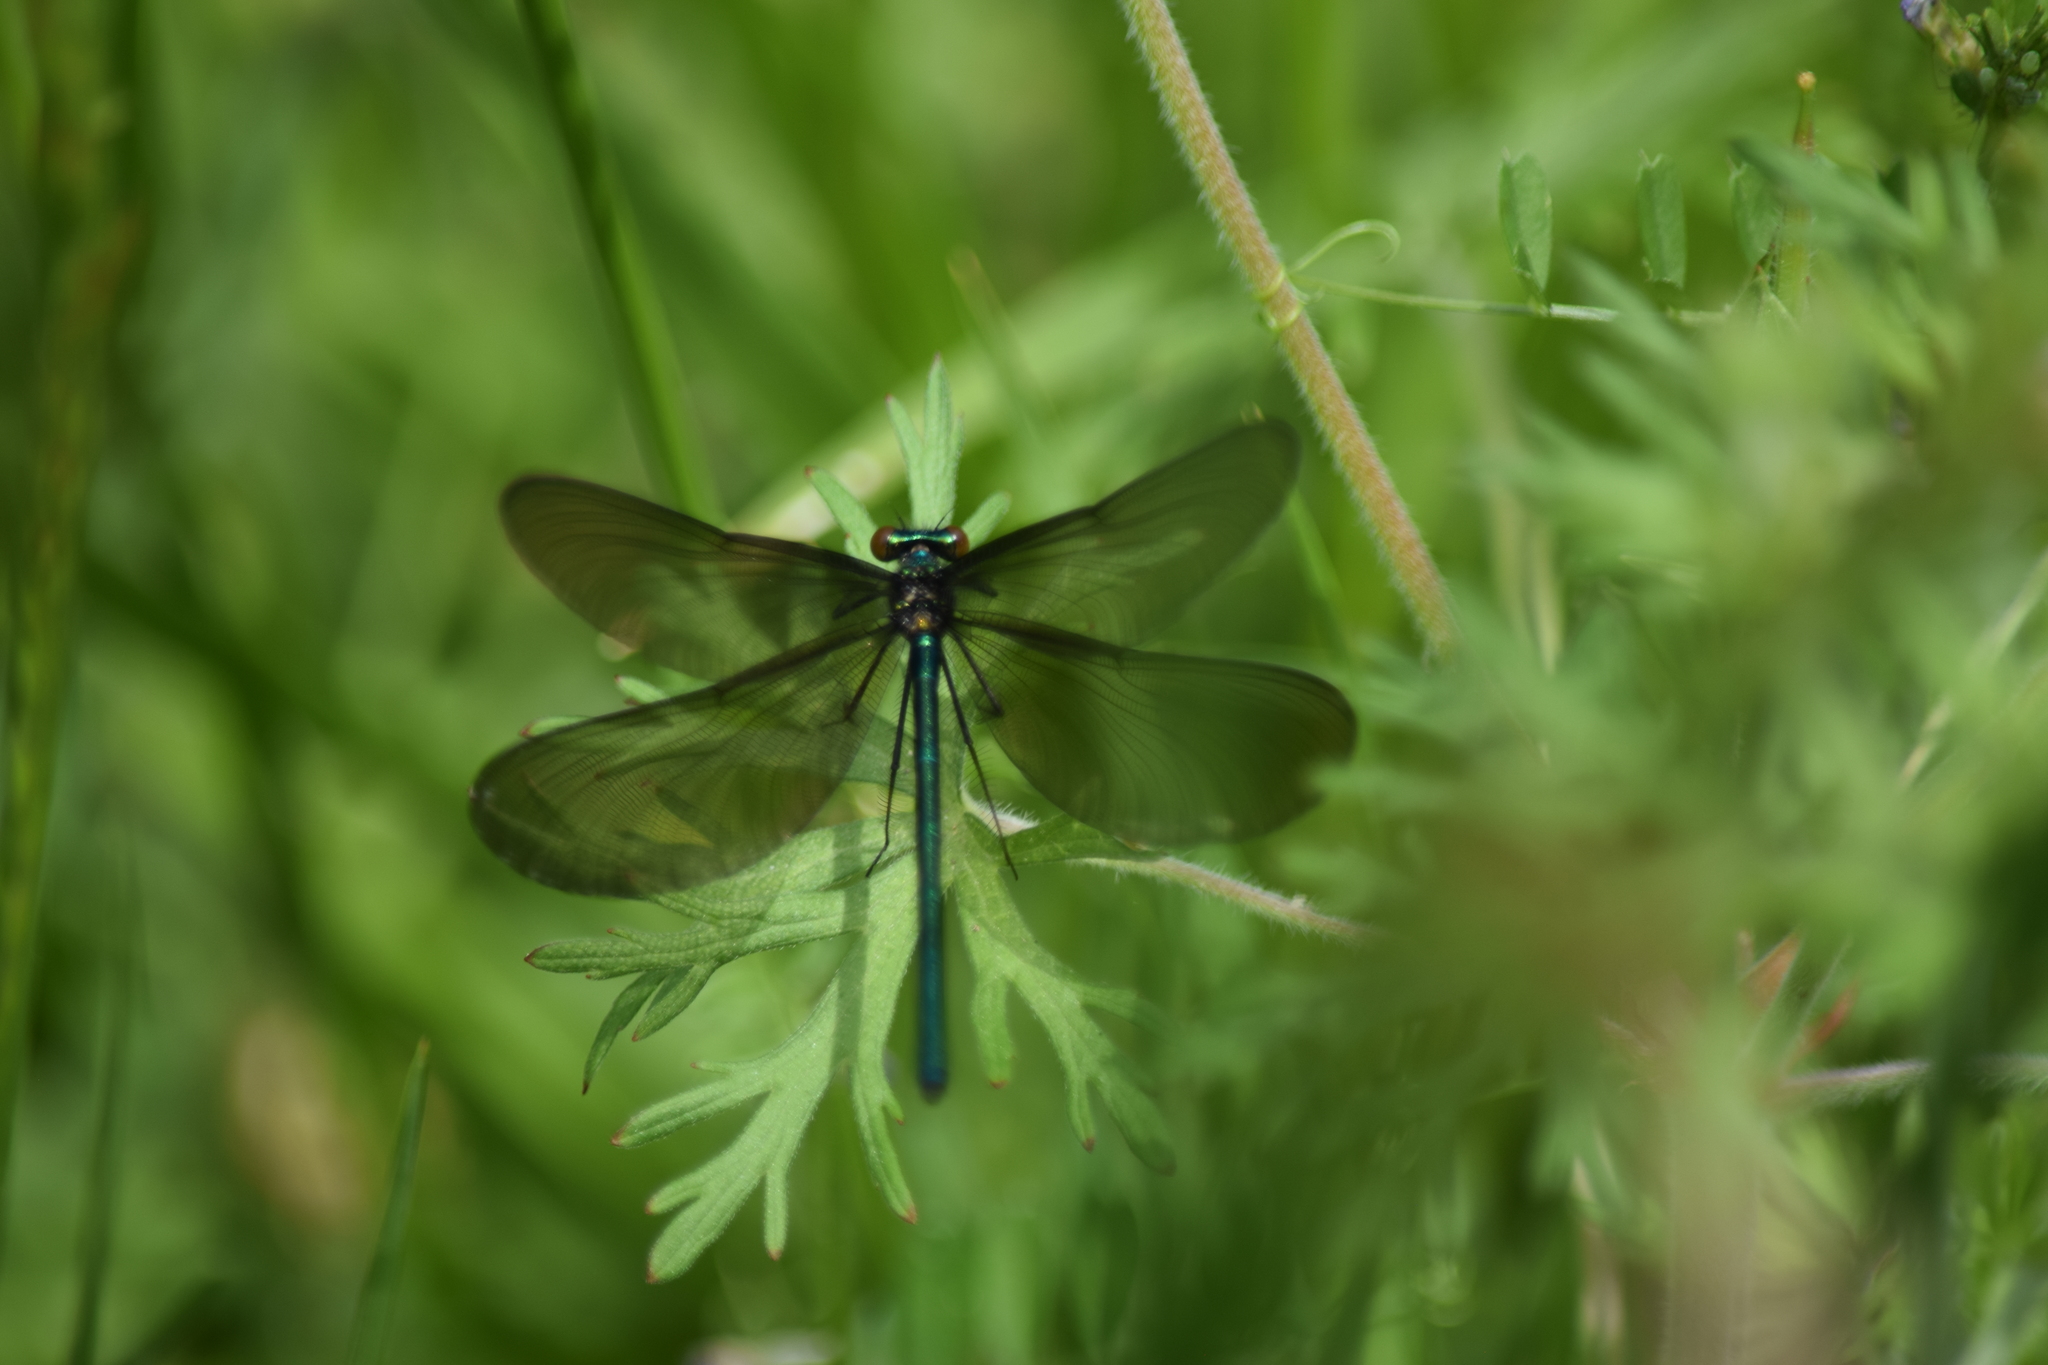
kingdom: Animalia
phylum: Arthropoda
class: Insecta
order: Odonata
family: Calopterygidae
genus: Calopteryx
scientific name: Calopteryx maculata
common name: Ebony jewelwing
